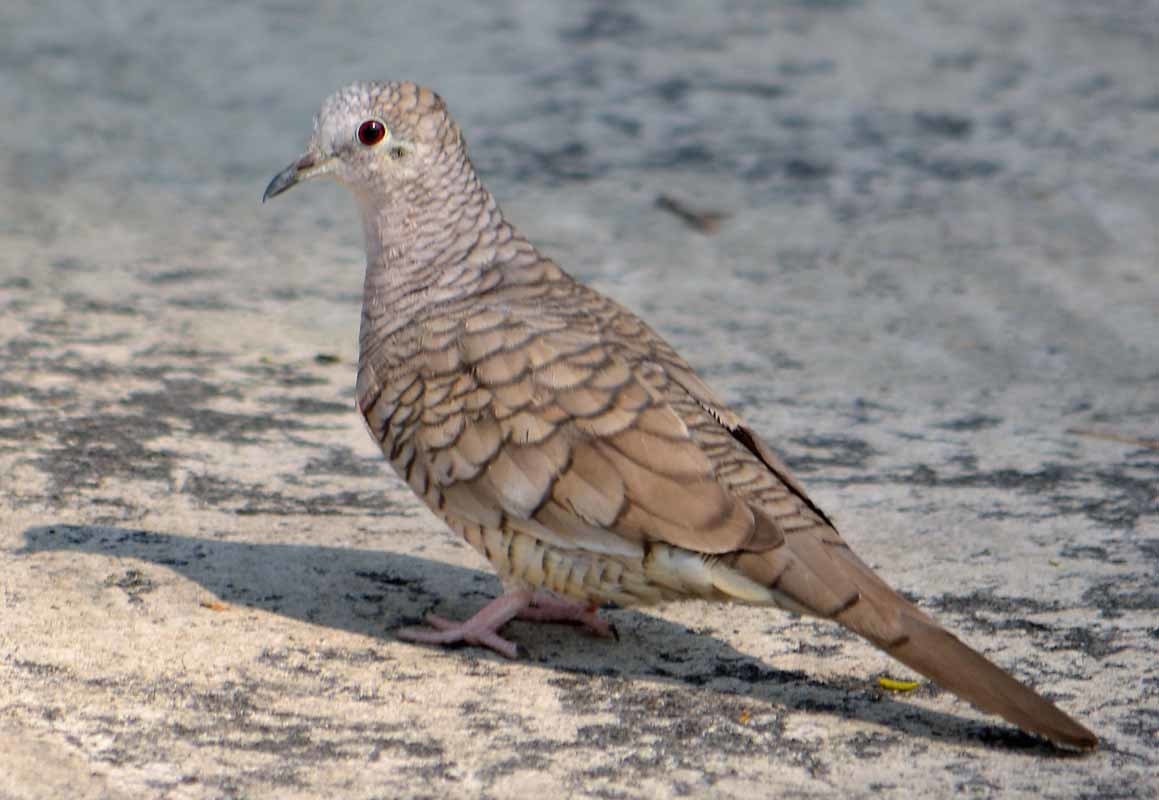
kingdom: Animalia
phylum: Chordata
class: Aves
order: Columbiformes
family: Columbidae
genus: Columbina
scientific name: Columbina inca
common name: Inca dove
